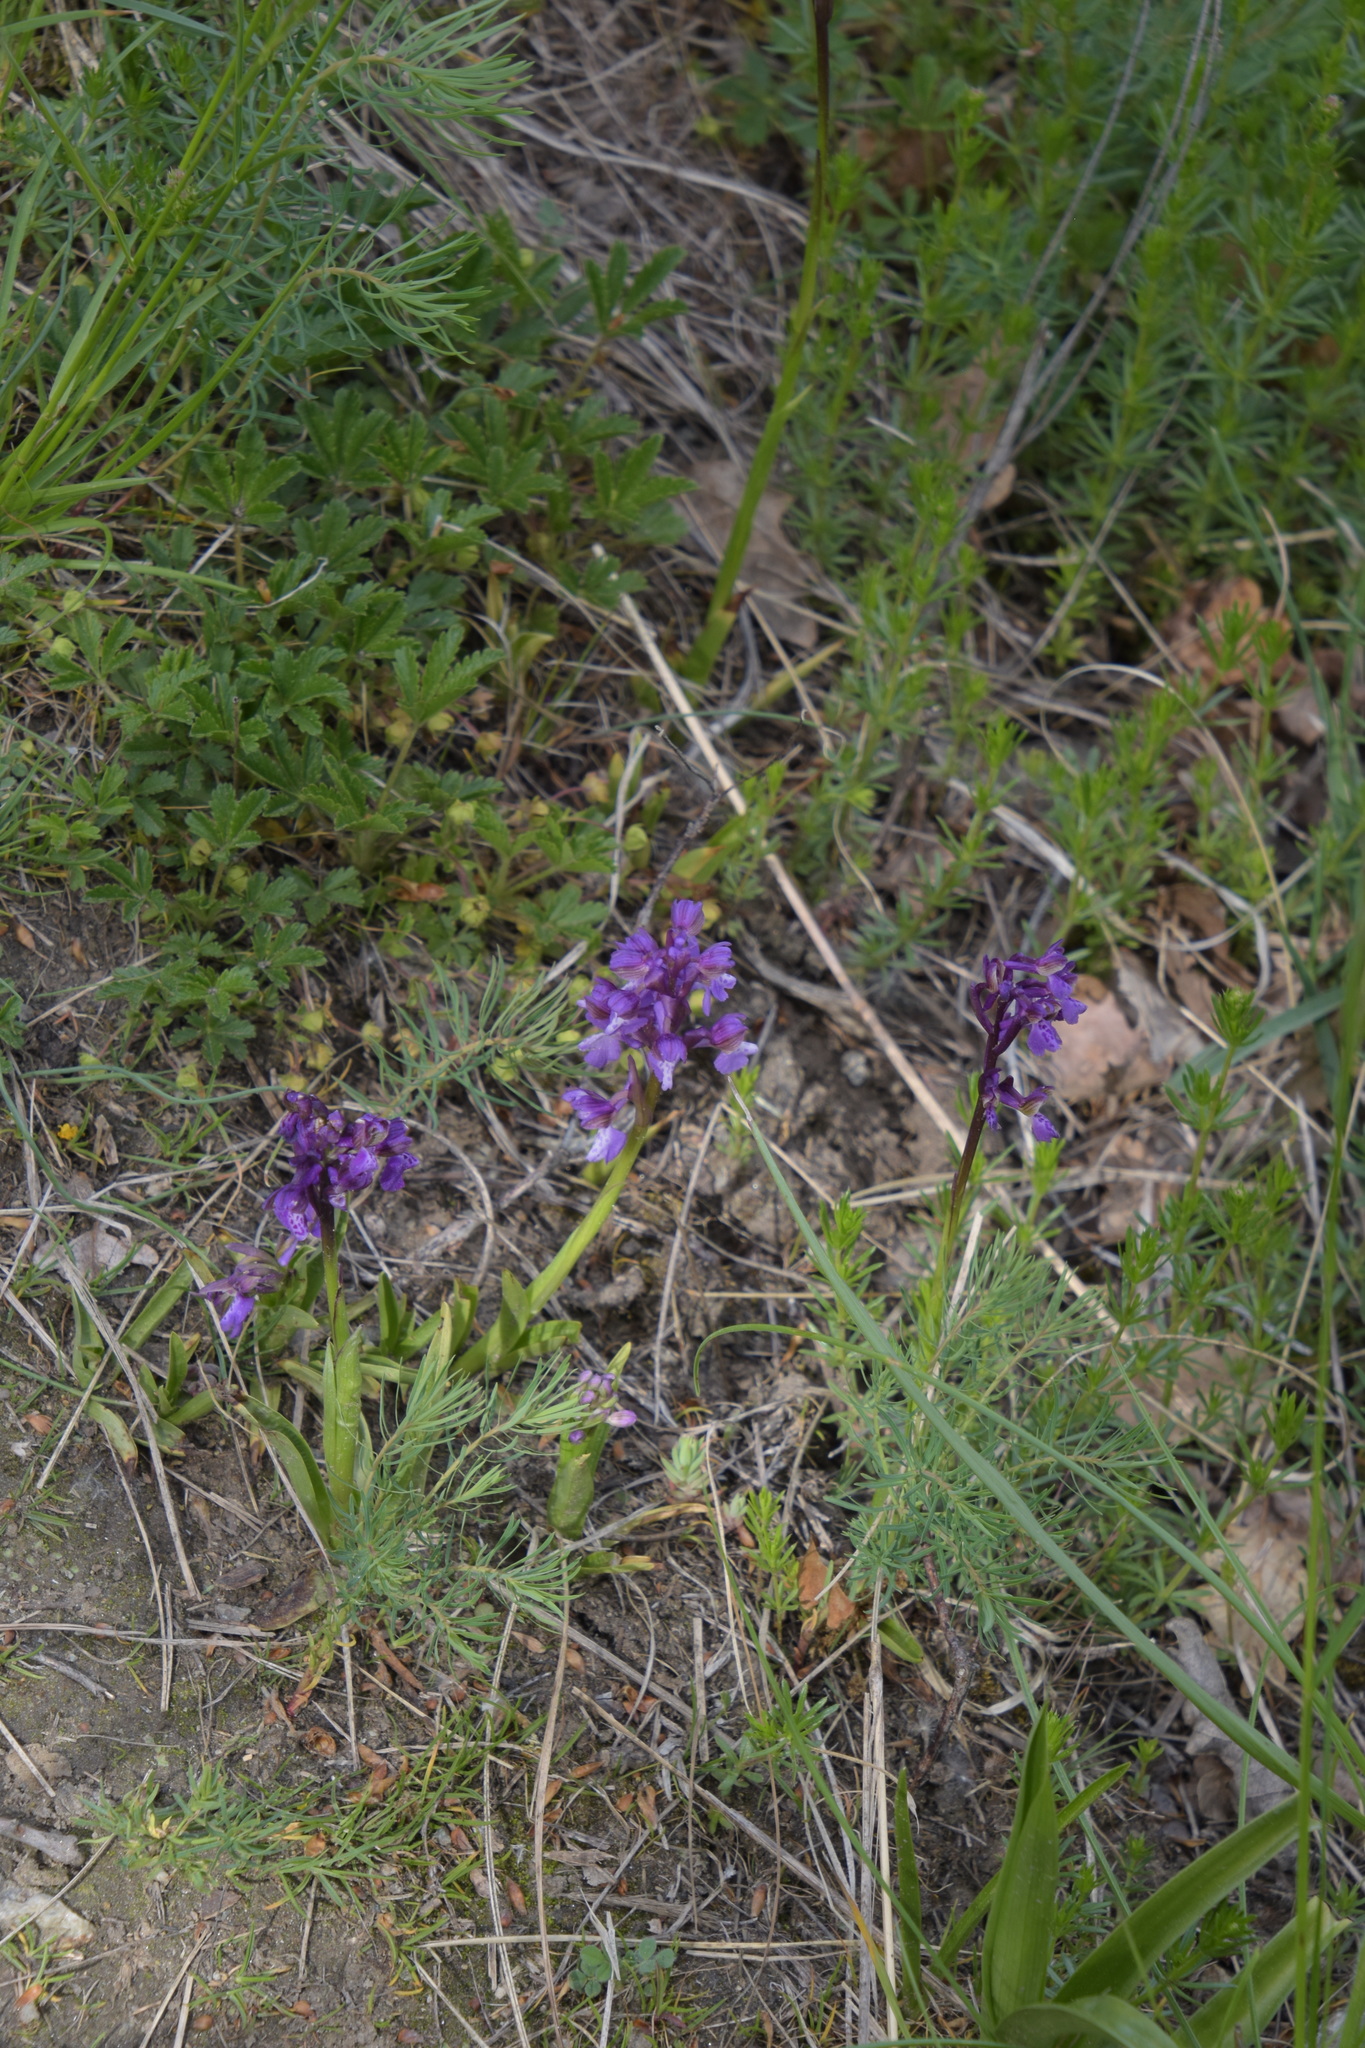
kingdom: Plantae
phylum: Tracheophyta
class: Liliopsida
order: Asparagales
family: Orchidaceae
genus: Anacamptis
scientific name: Anacamptis morio
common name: Green-winged orchid
